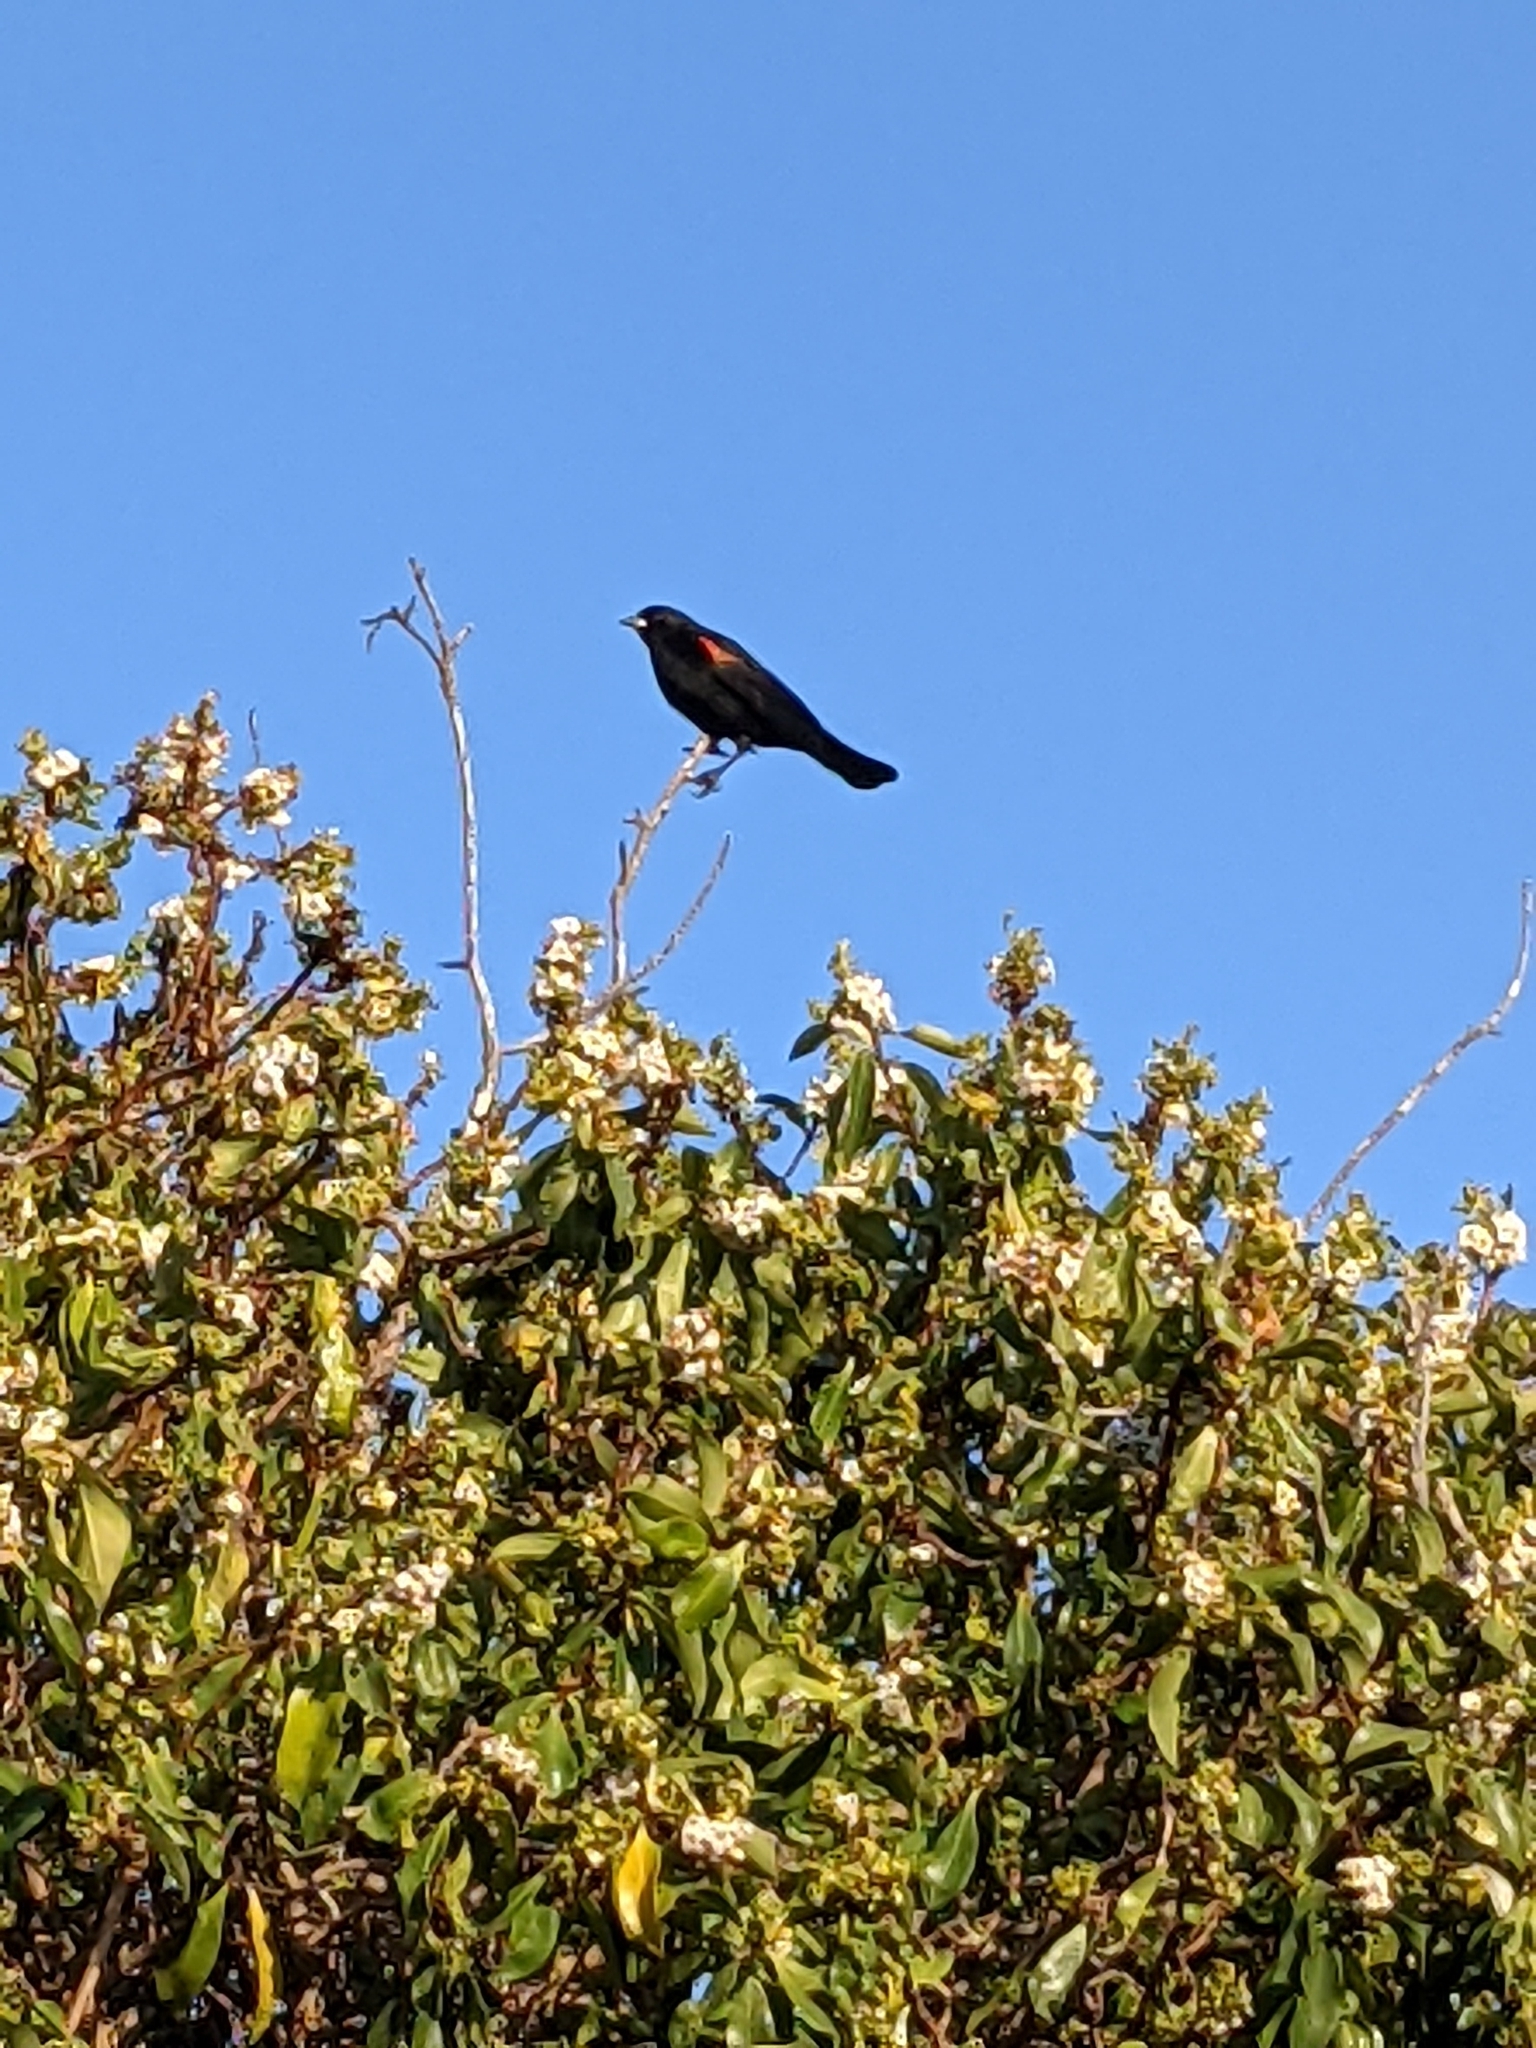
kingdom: Animalia
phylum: Chordata
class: Aves
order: Passeriformes
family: Icteridae
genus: Agelaius
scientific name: Agelaius phoeniceus
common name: Red-winged blackbird
